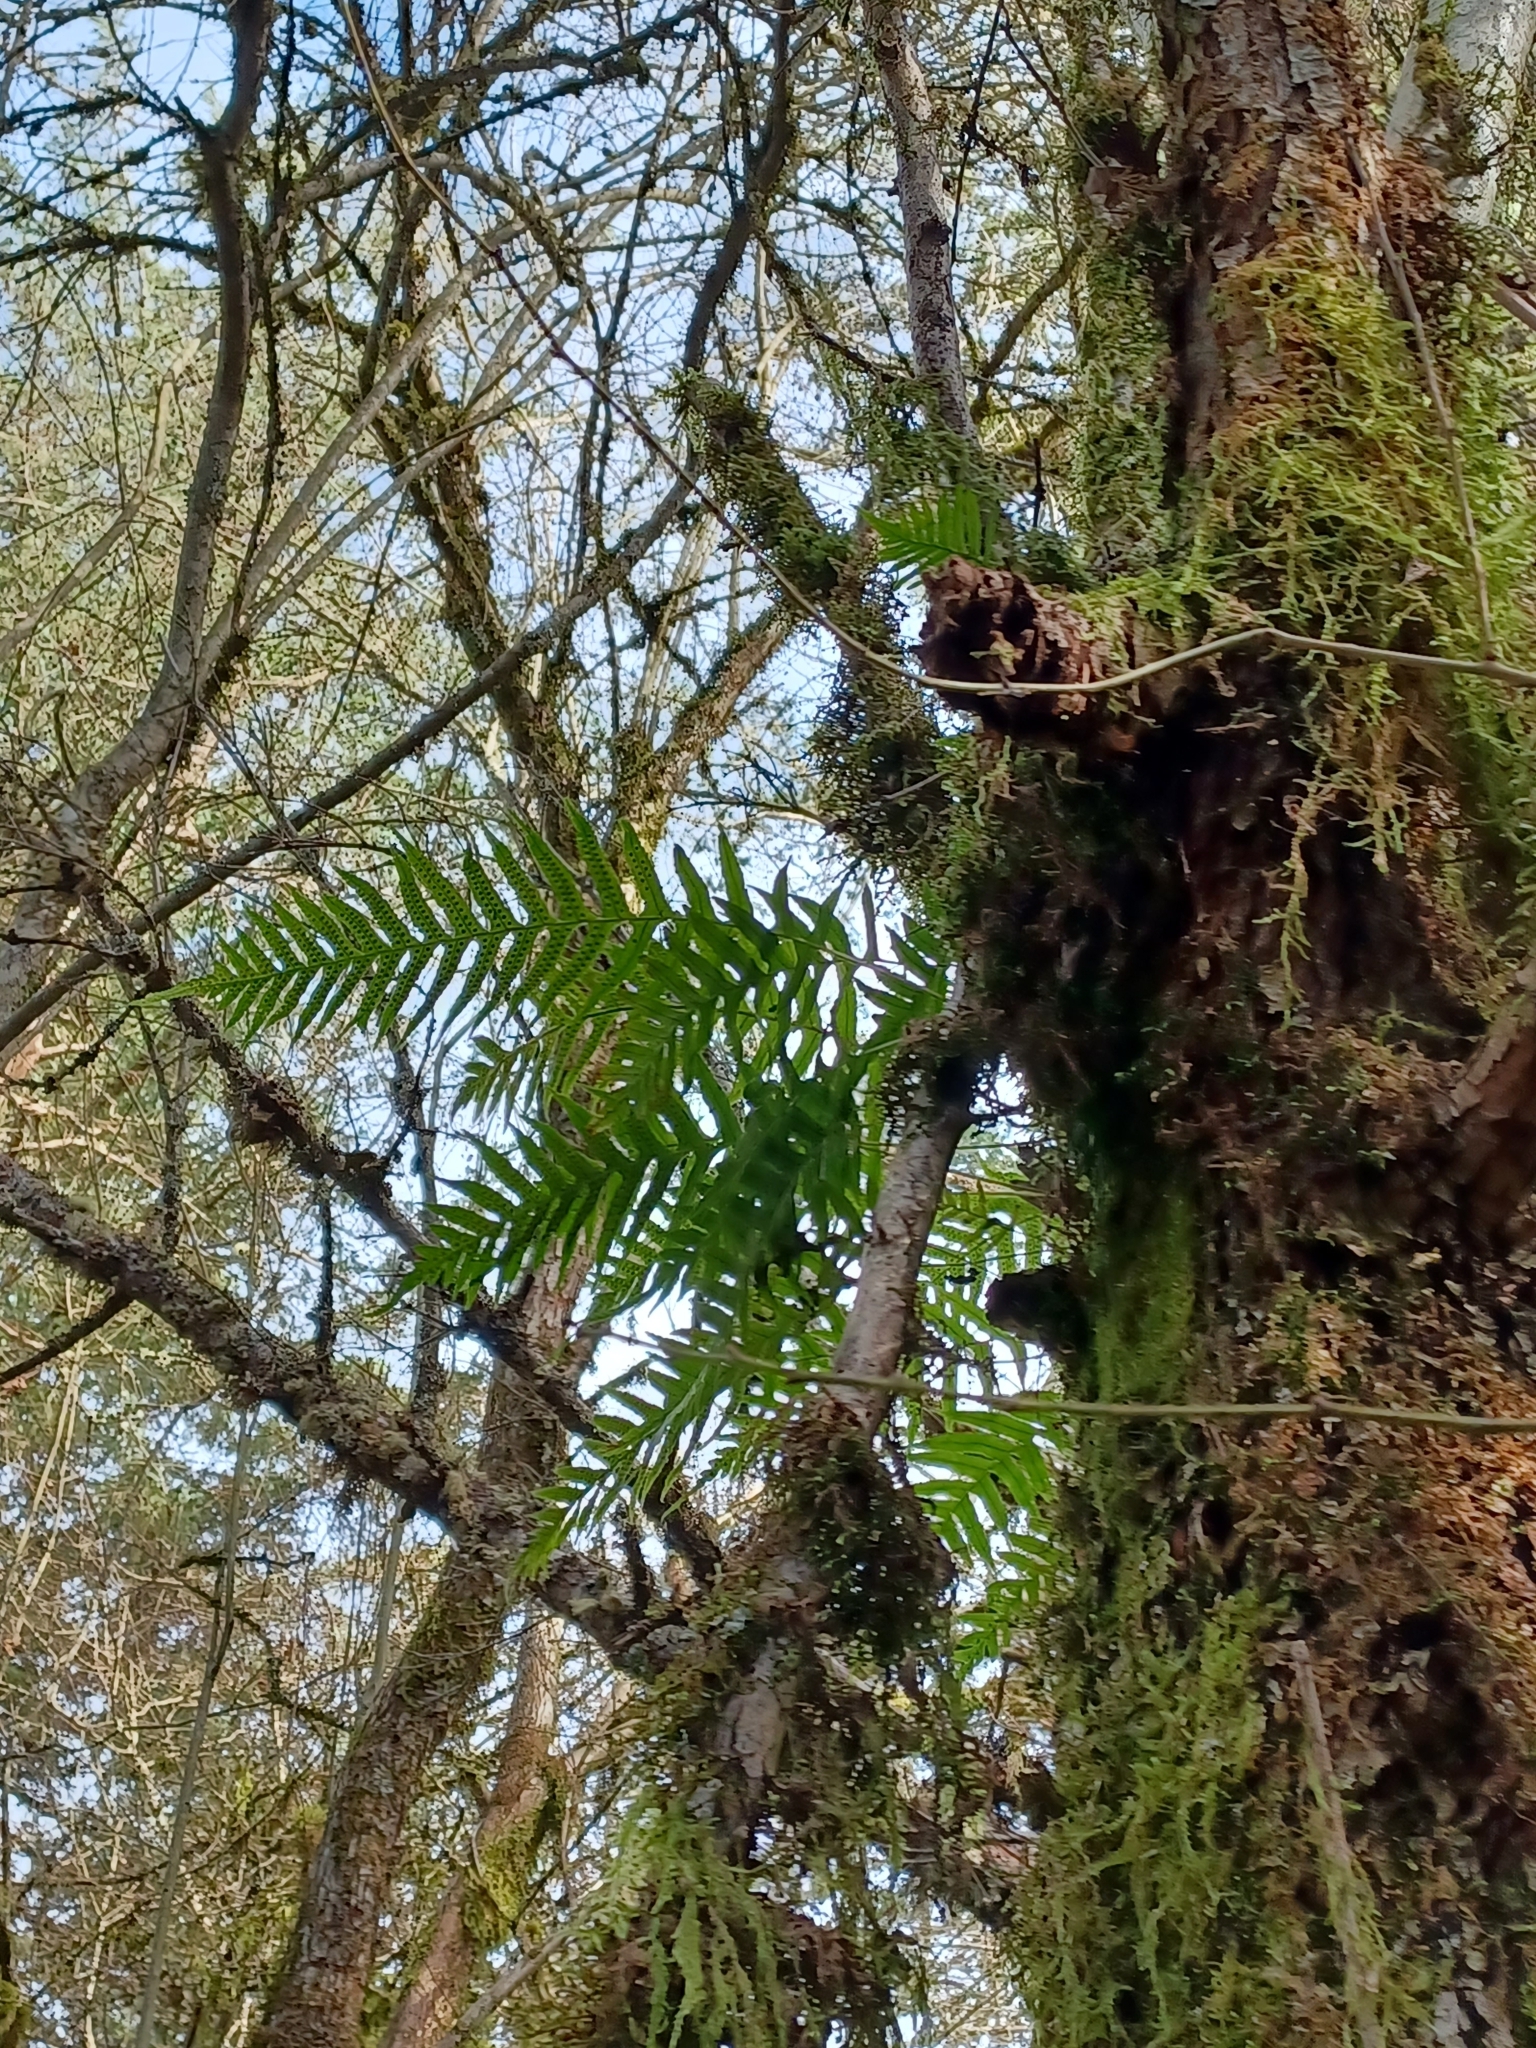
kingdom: Plantae
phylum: Tracheophyta
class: Polypodiopsida
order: Polypodiales
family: Polypodiaceae
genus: Polypodium
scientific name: Polypodium glycyrrhiza
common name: Licorice fern
